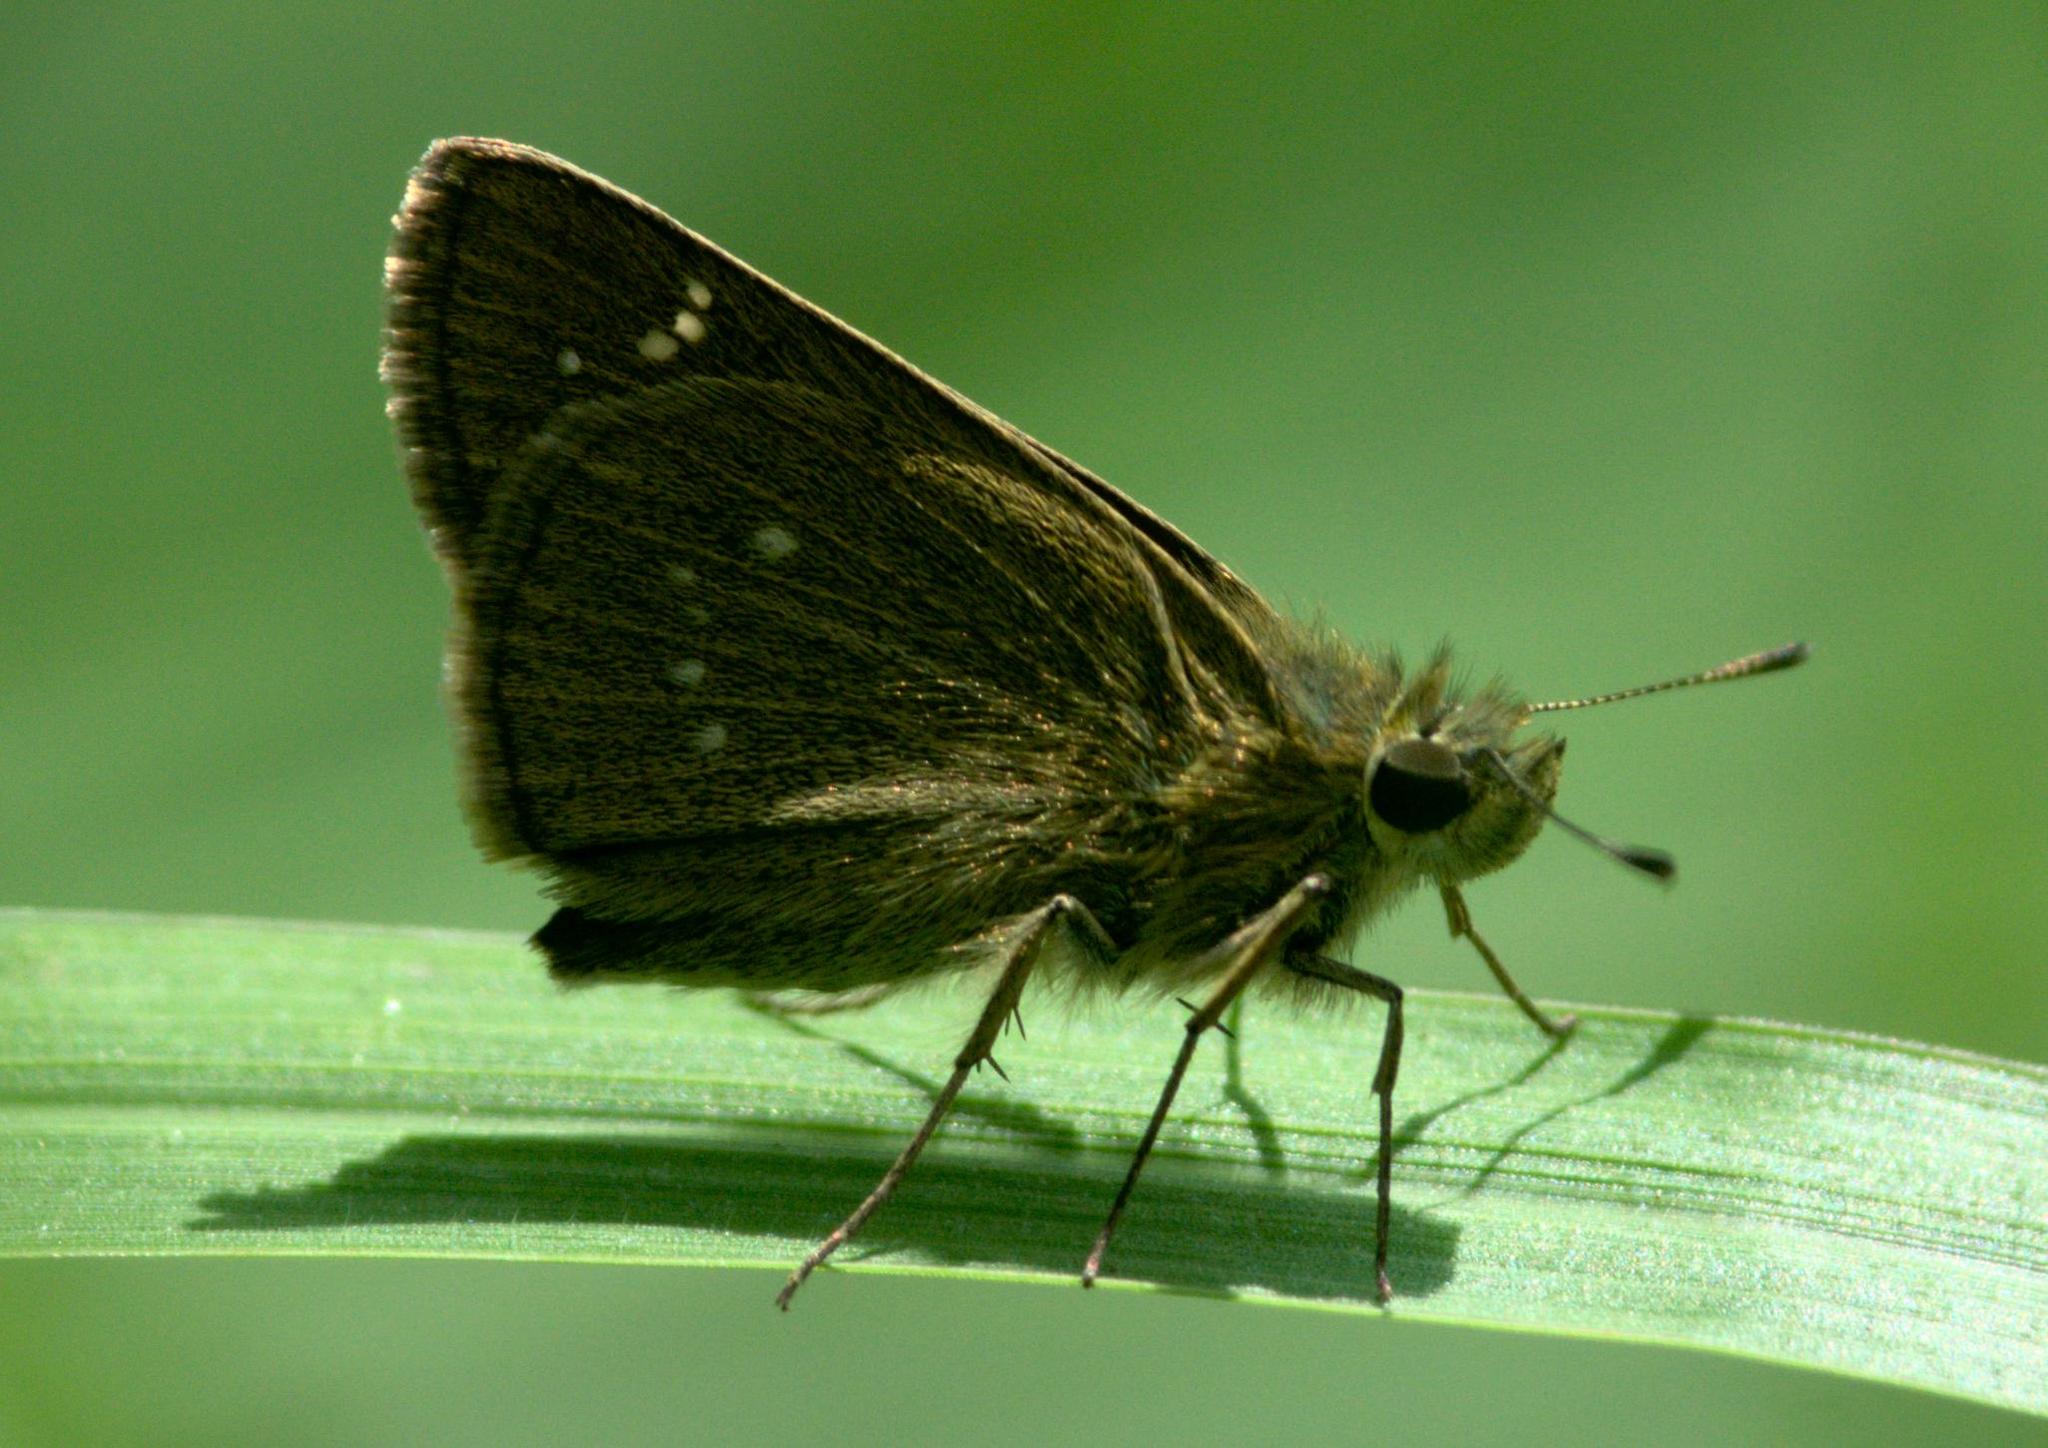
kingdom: Animalia
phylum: Arthropoda
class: Insecta
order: Lepidoptera
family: Hesperiidae
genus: Borbo
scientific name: Borbo cinnara
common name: Formosan swift
